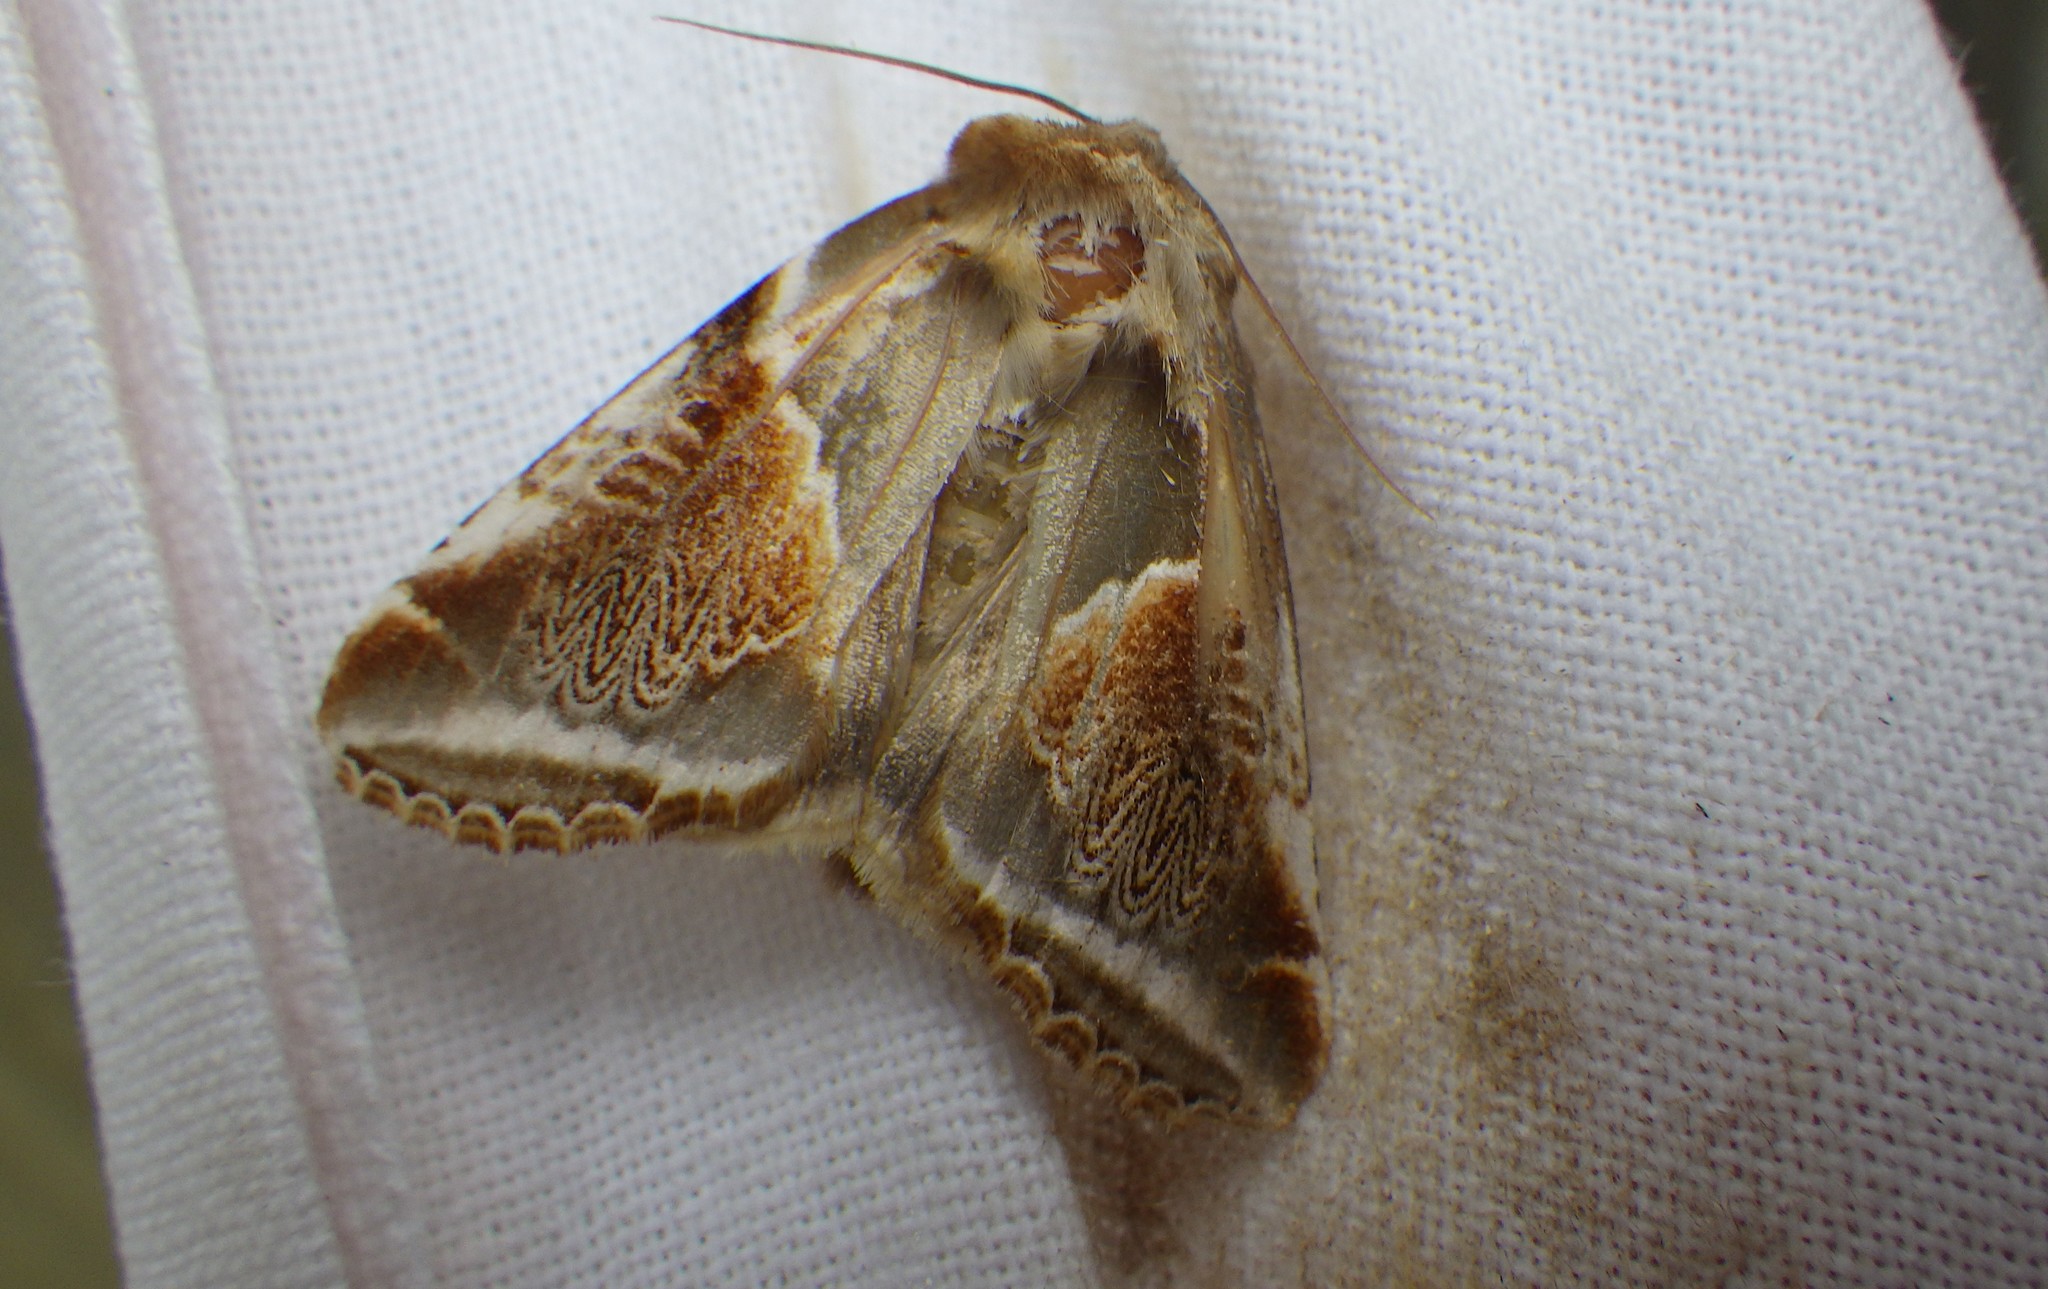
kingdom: Animalia
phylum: Arthropoda
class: Insecta
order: Lepidoptera
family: Drepanidae
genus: Habrosyne
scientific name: Habrosyne pyritoides
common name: Buff arches
